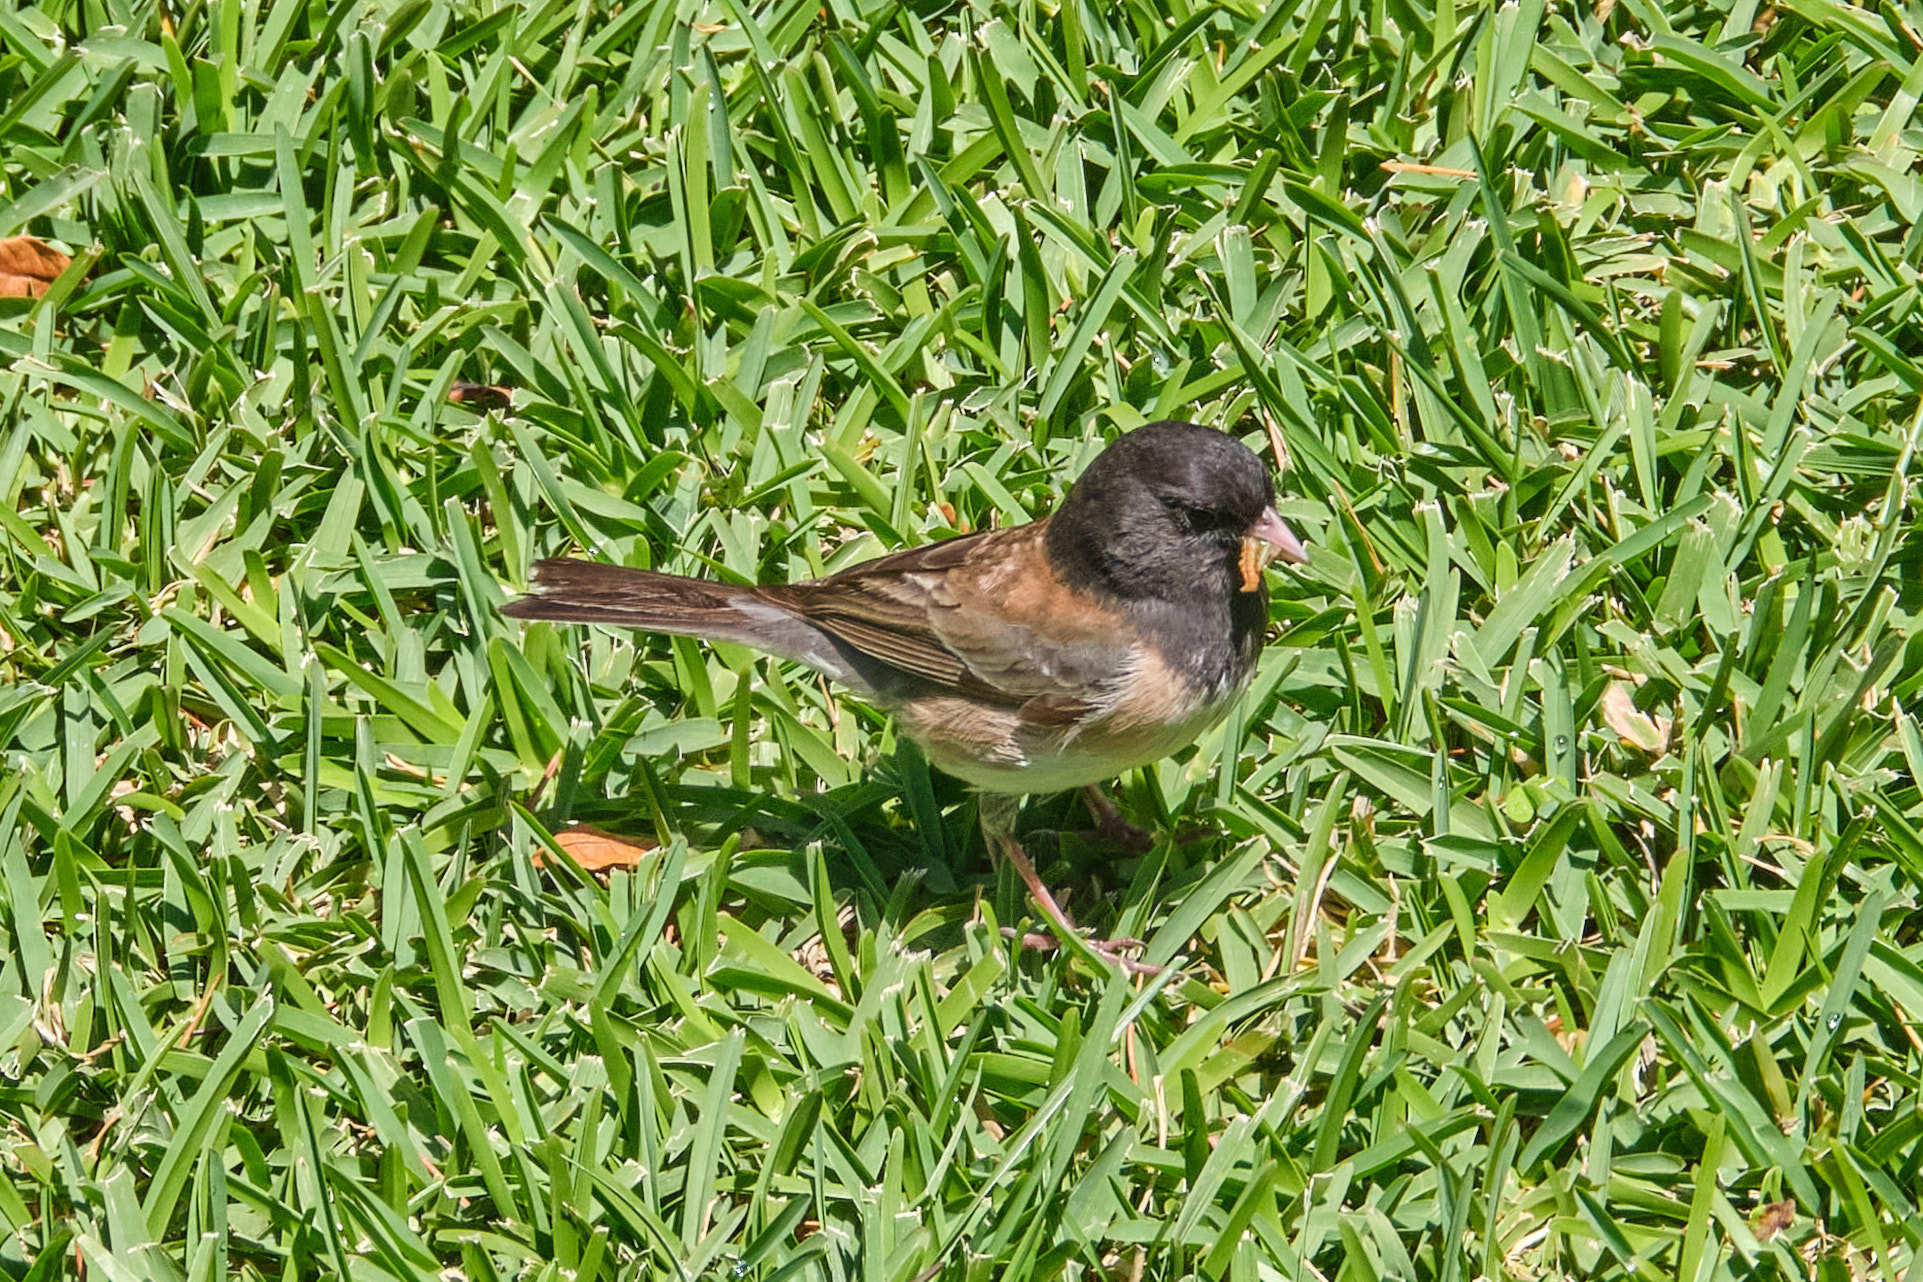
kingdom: Animalia
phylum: Chordata
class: Aves
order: Passeriformes
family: Passerellidae
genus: Junco
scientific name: Junco hyemalis
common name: Dark-eyed junco
